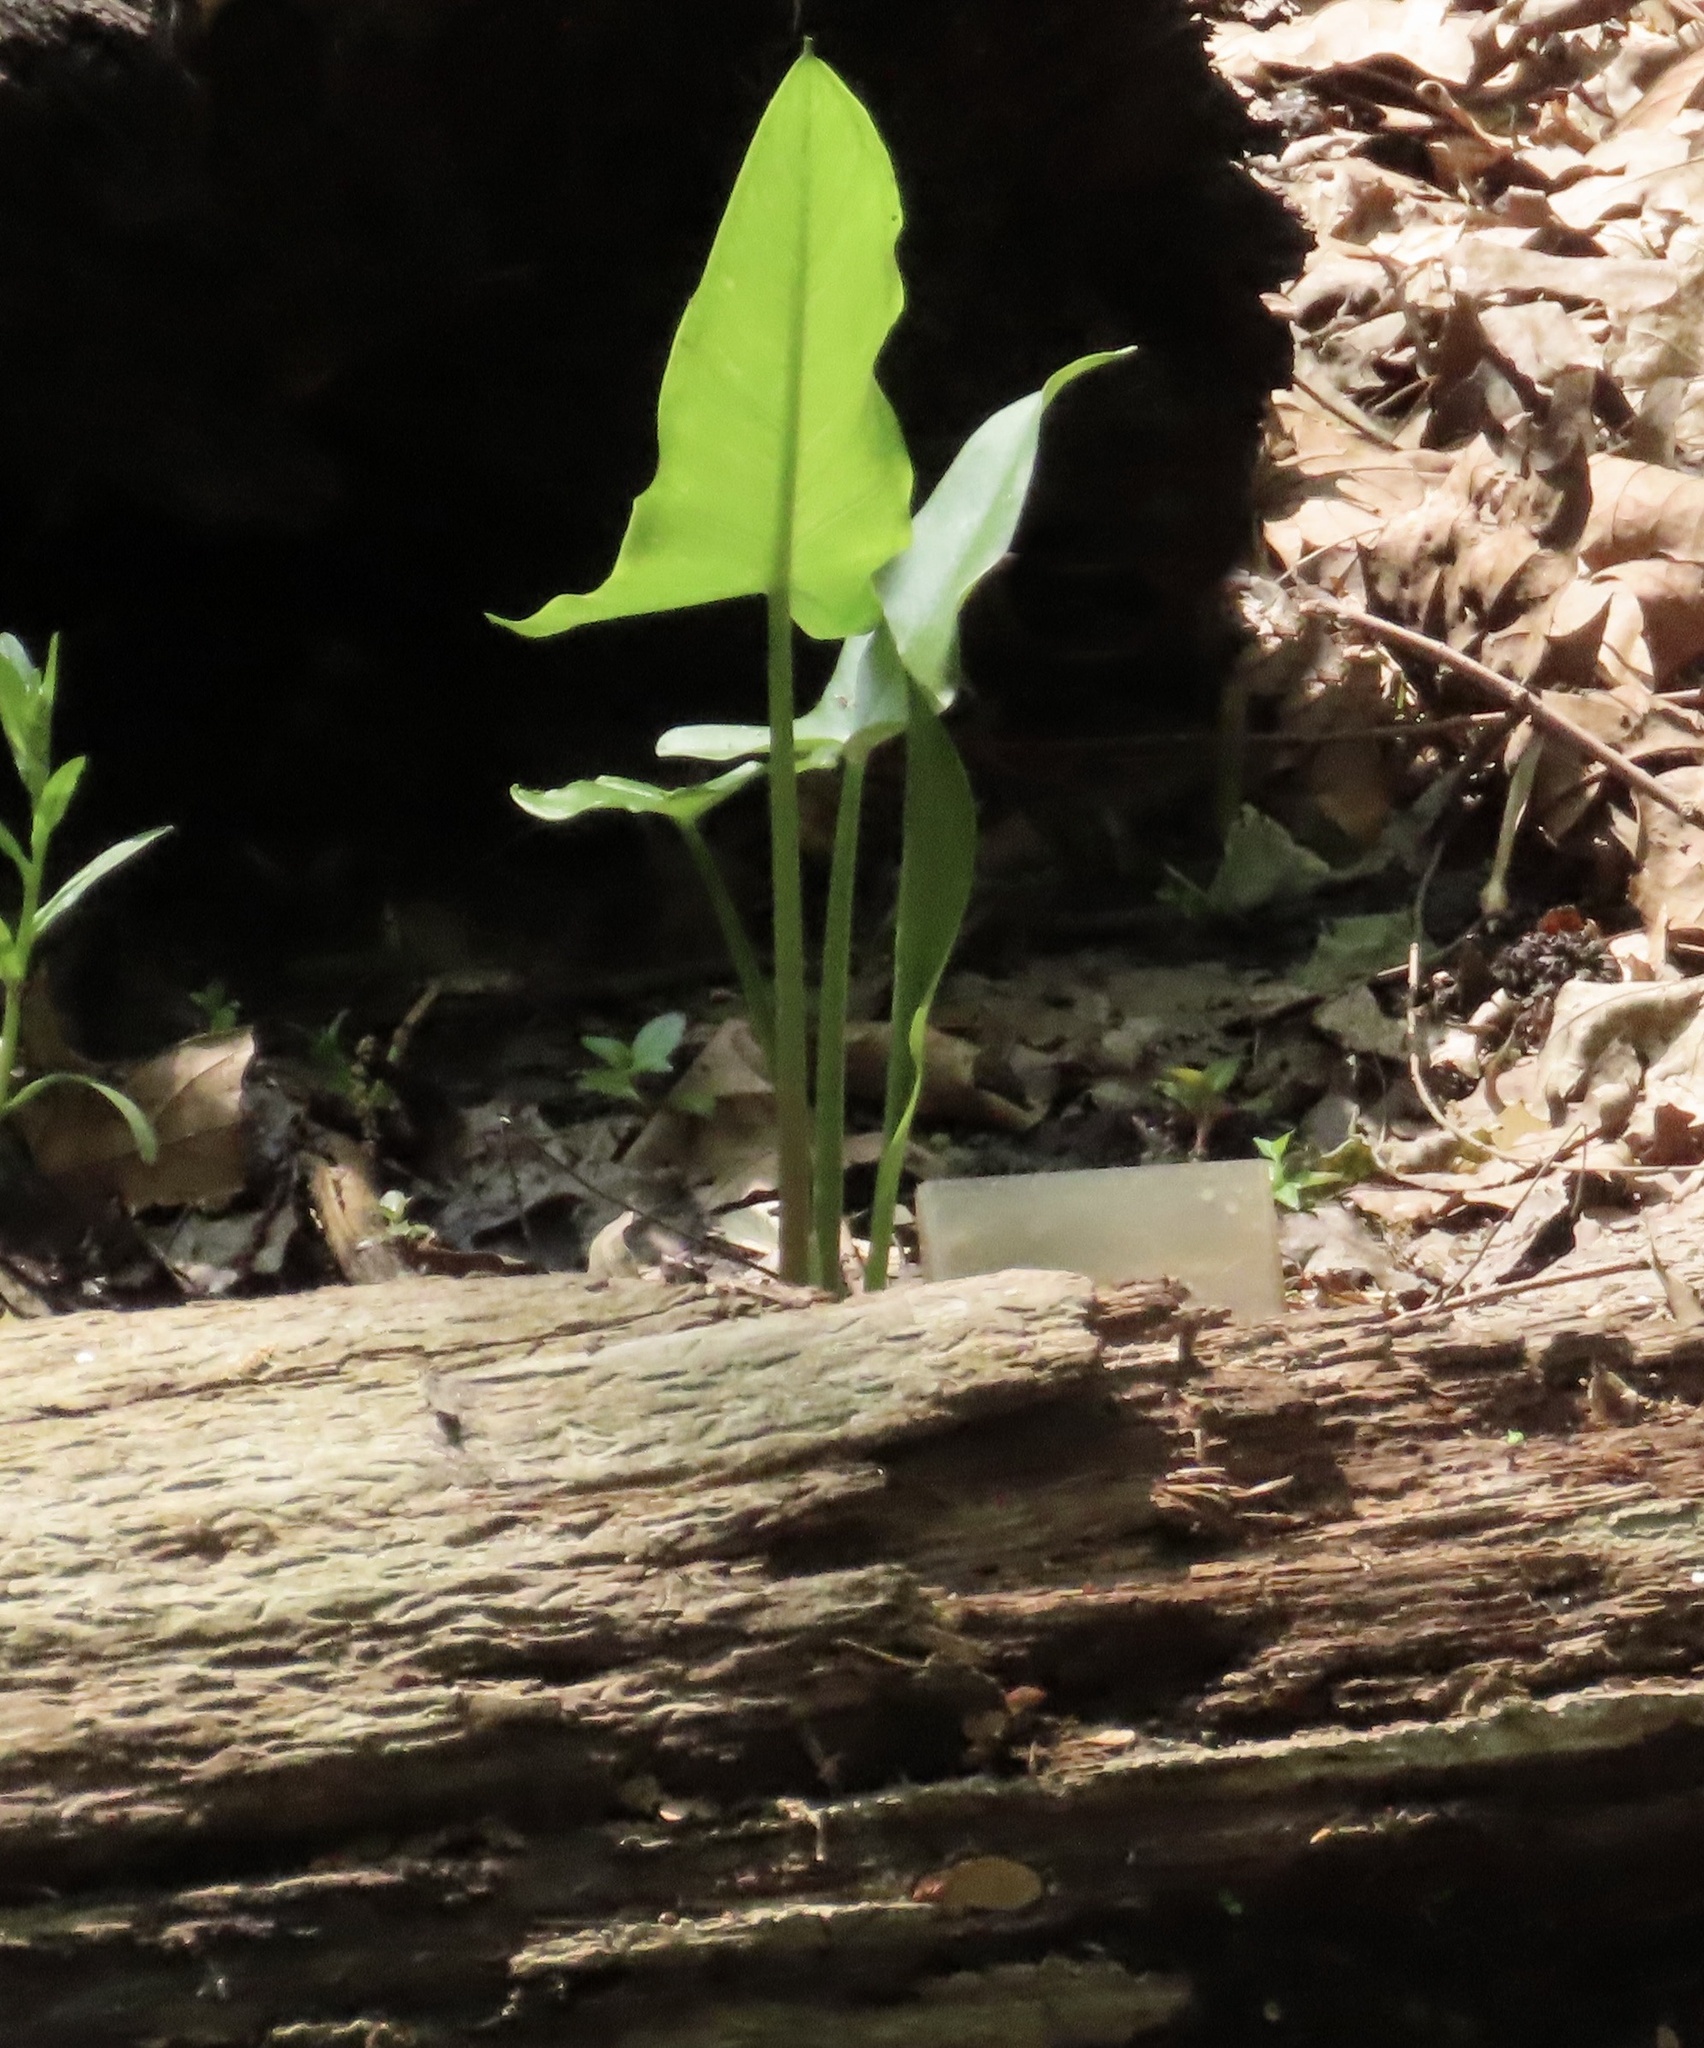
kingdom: Plantae
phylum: Tracheophyta
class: Liliopsida
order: Alismatales
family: Araceae
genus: Peltandra
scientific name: Peltandra virginica
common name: Arrow arum
